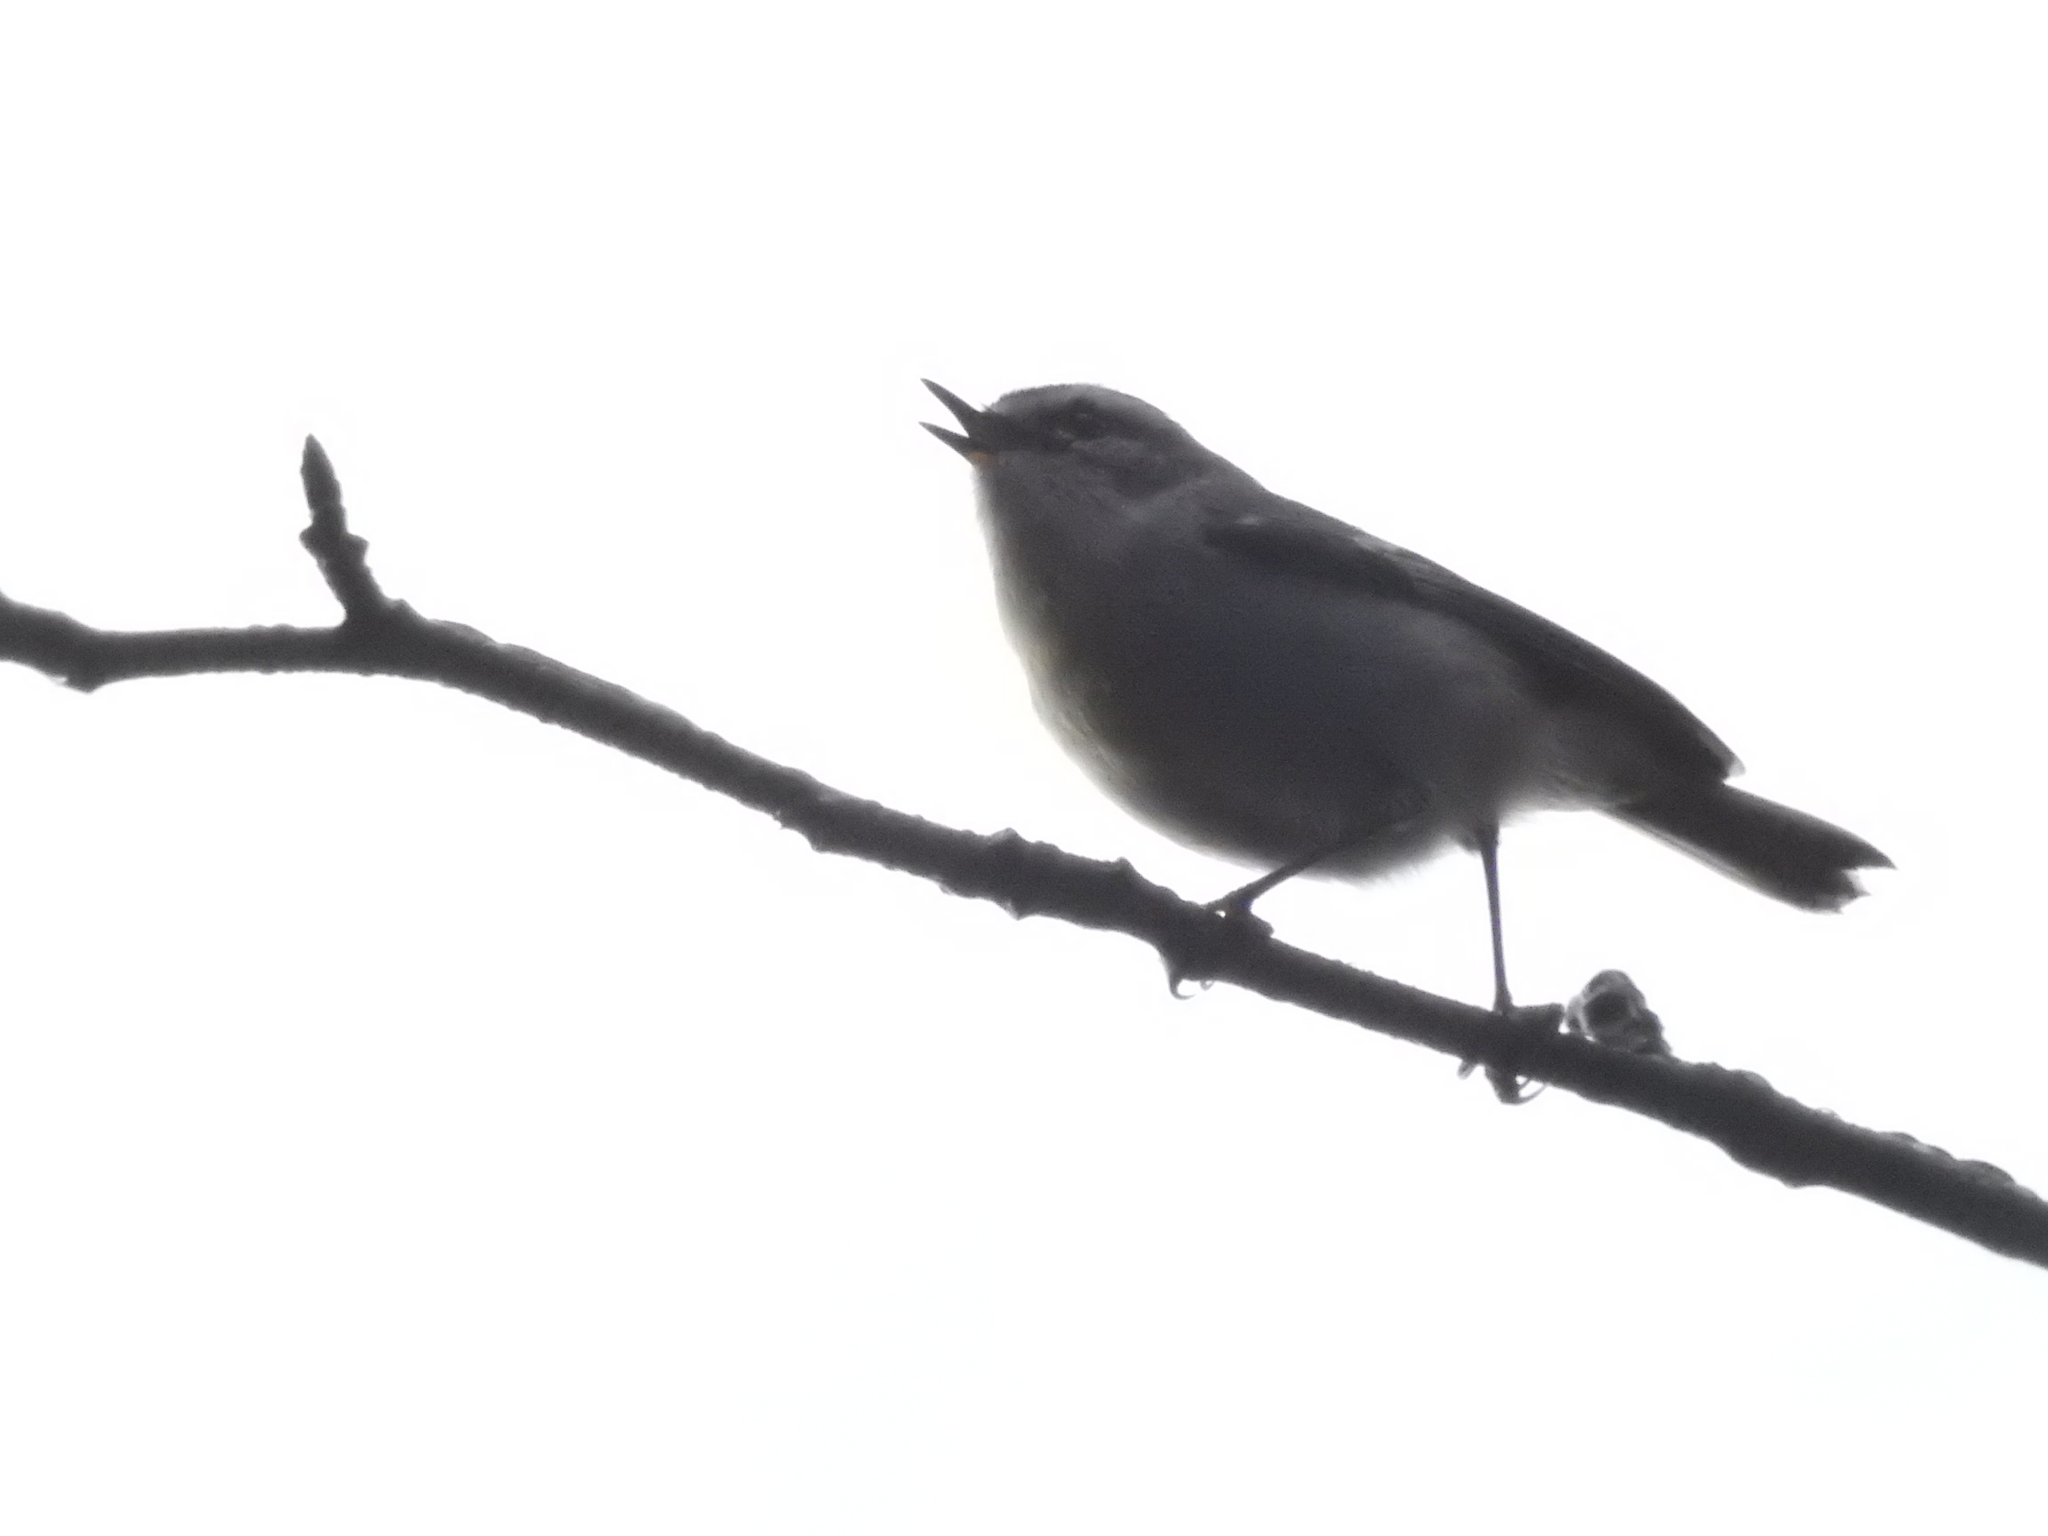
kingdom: Animalia
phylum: Chordata
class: Aves
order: Passeriformes
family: Regulidae
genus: Regulus
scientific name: Regulus satrapa
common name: Golden-crowned kinglet
